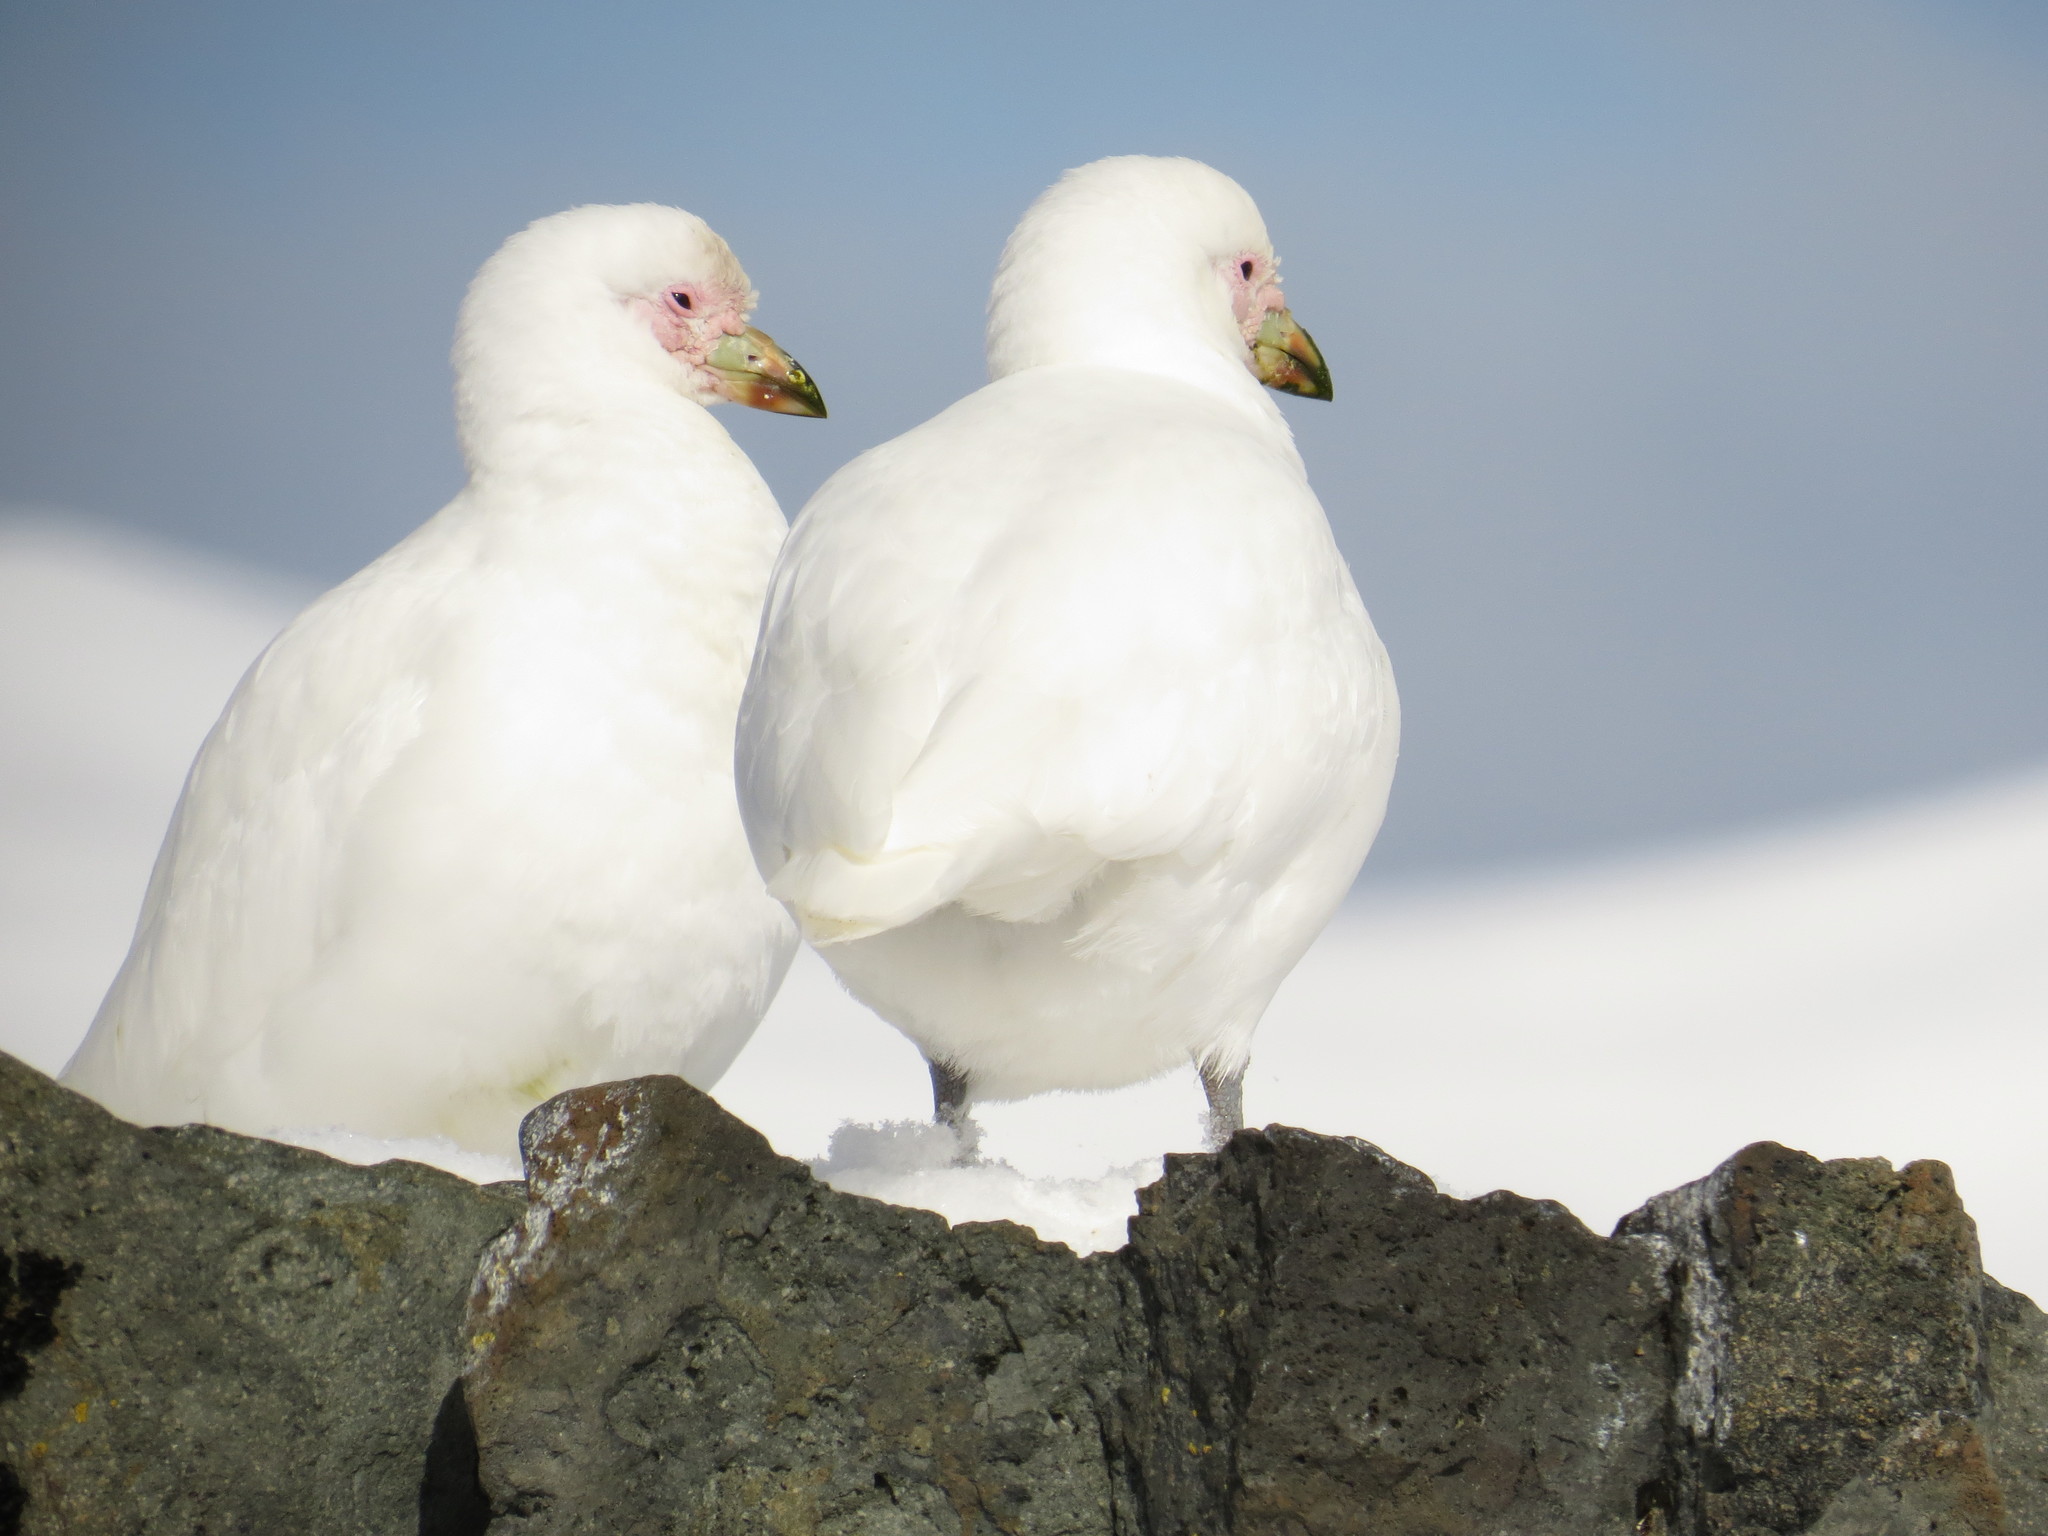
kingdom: Animalia
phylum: Chordata
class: Aves
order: Charadriiformes
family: Chionidae
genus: Chionis
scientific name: Chionis albus
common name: Snowy sheathbill
